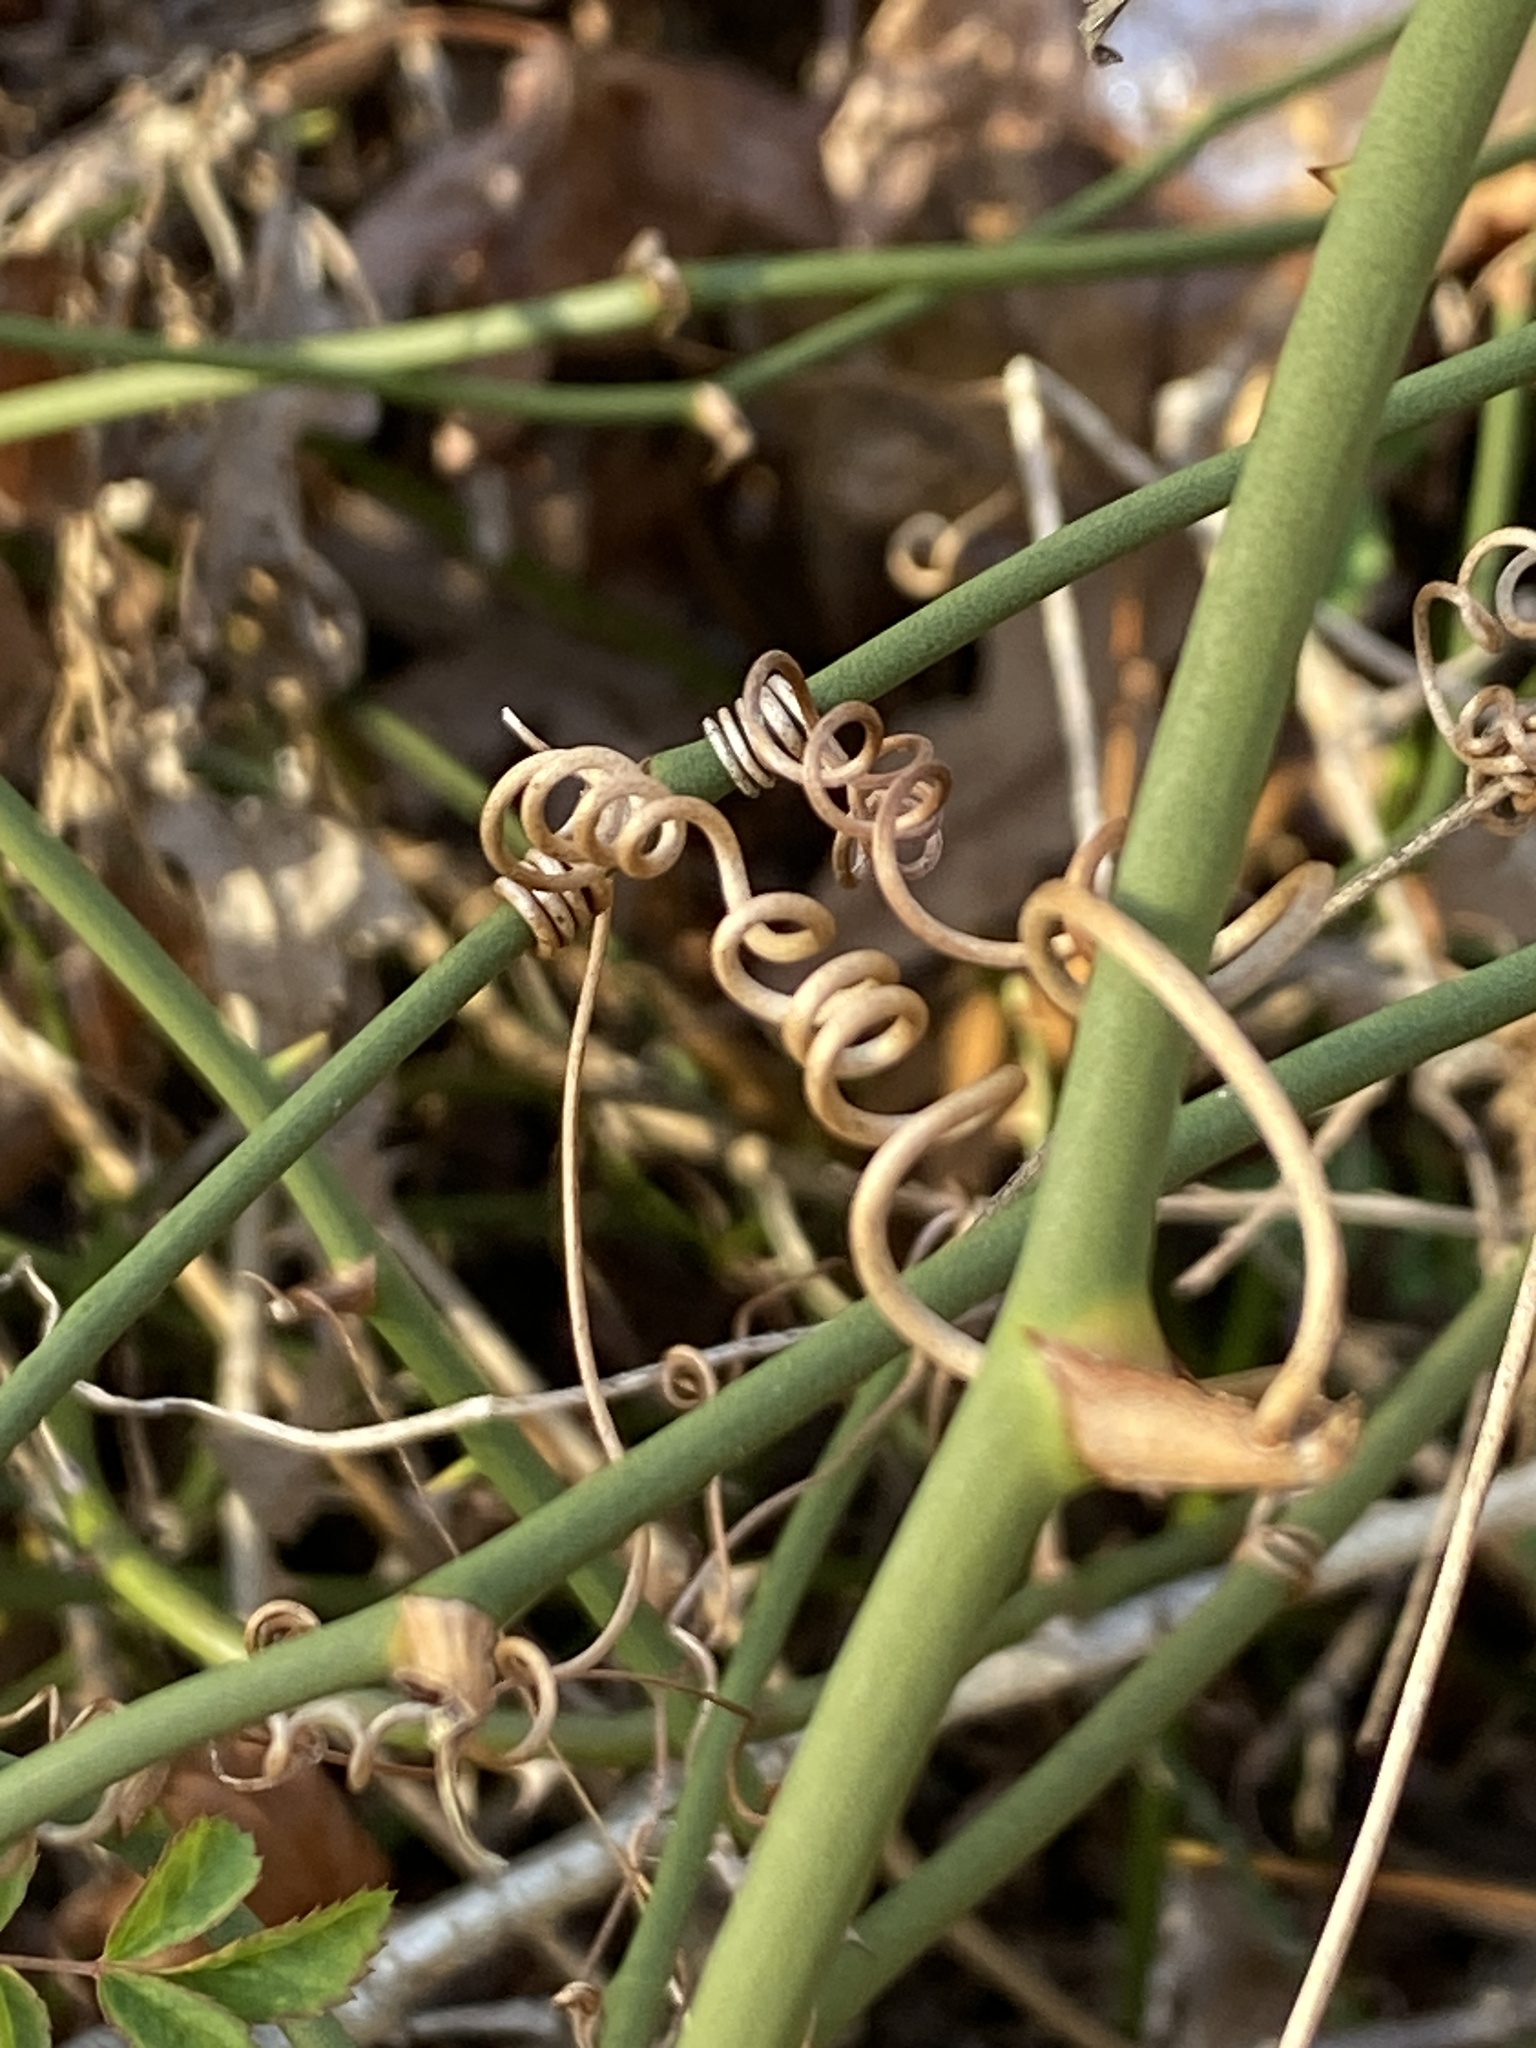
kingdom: Plantae
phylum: Tracheophyta
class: Liliopsida
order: Liliales
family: Smilacaceae
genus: Smilax
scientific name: Smilax rotundifolia
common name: Bullbriar
